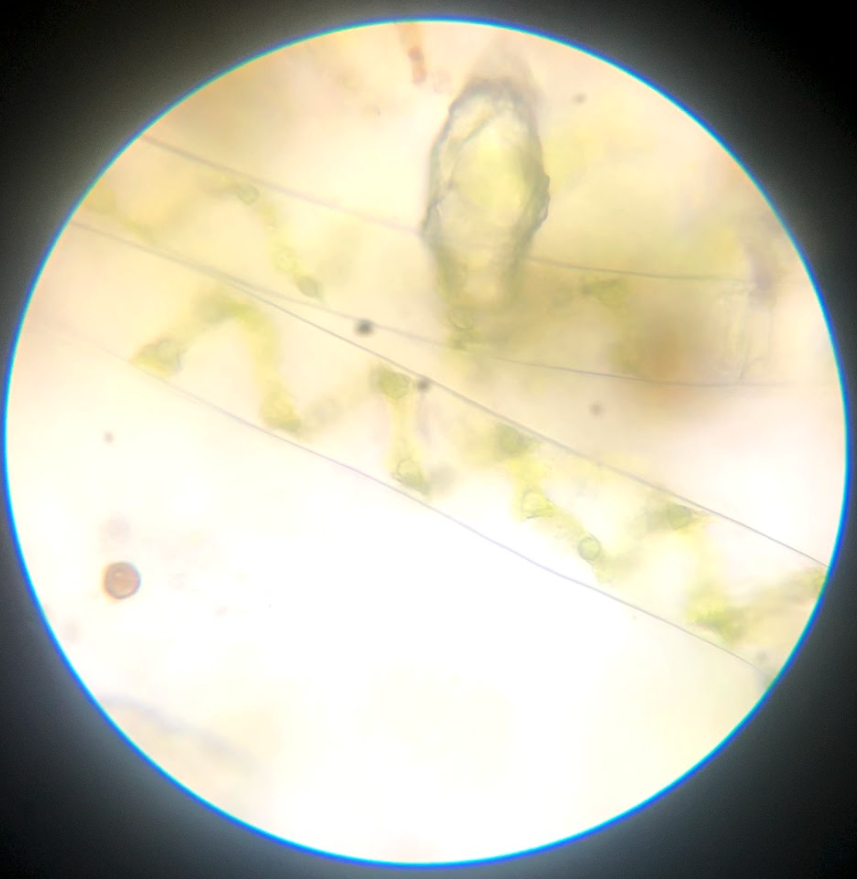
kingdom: Plantae
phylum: Charophyta
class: Zygnematophyceae
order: Zygnematales
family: Zygnemataceae
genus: Spirogyra
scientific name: Spirogyra
